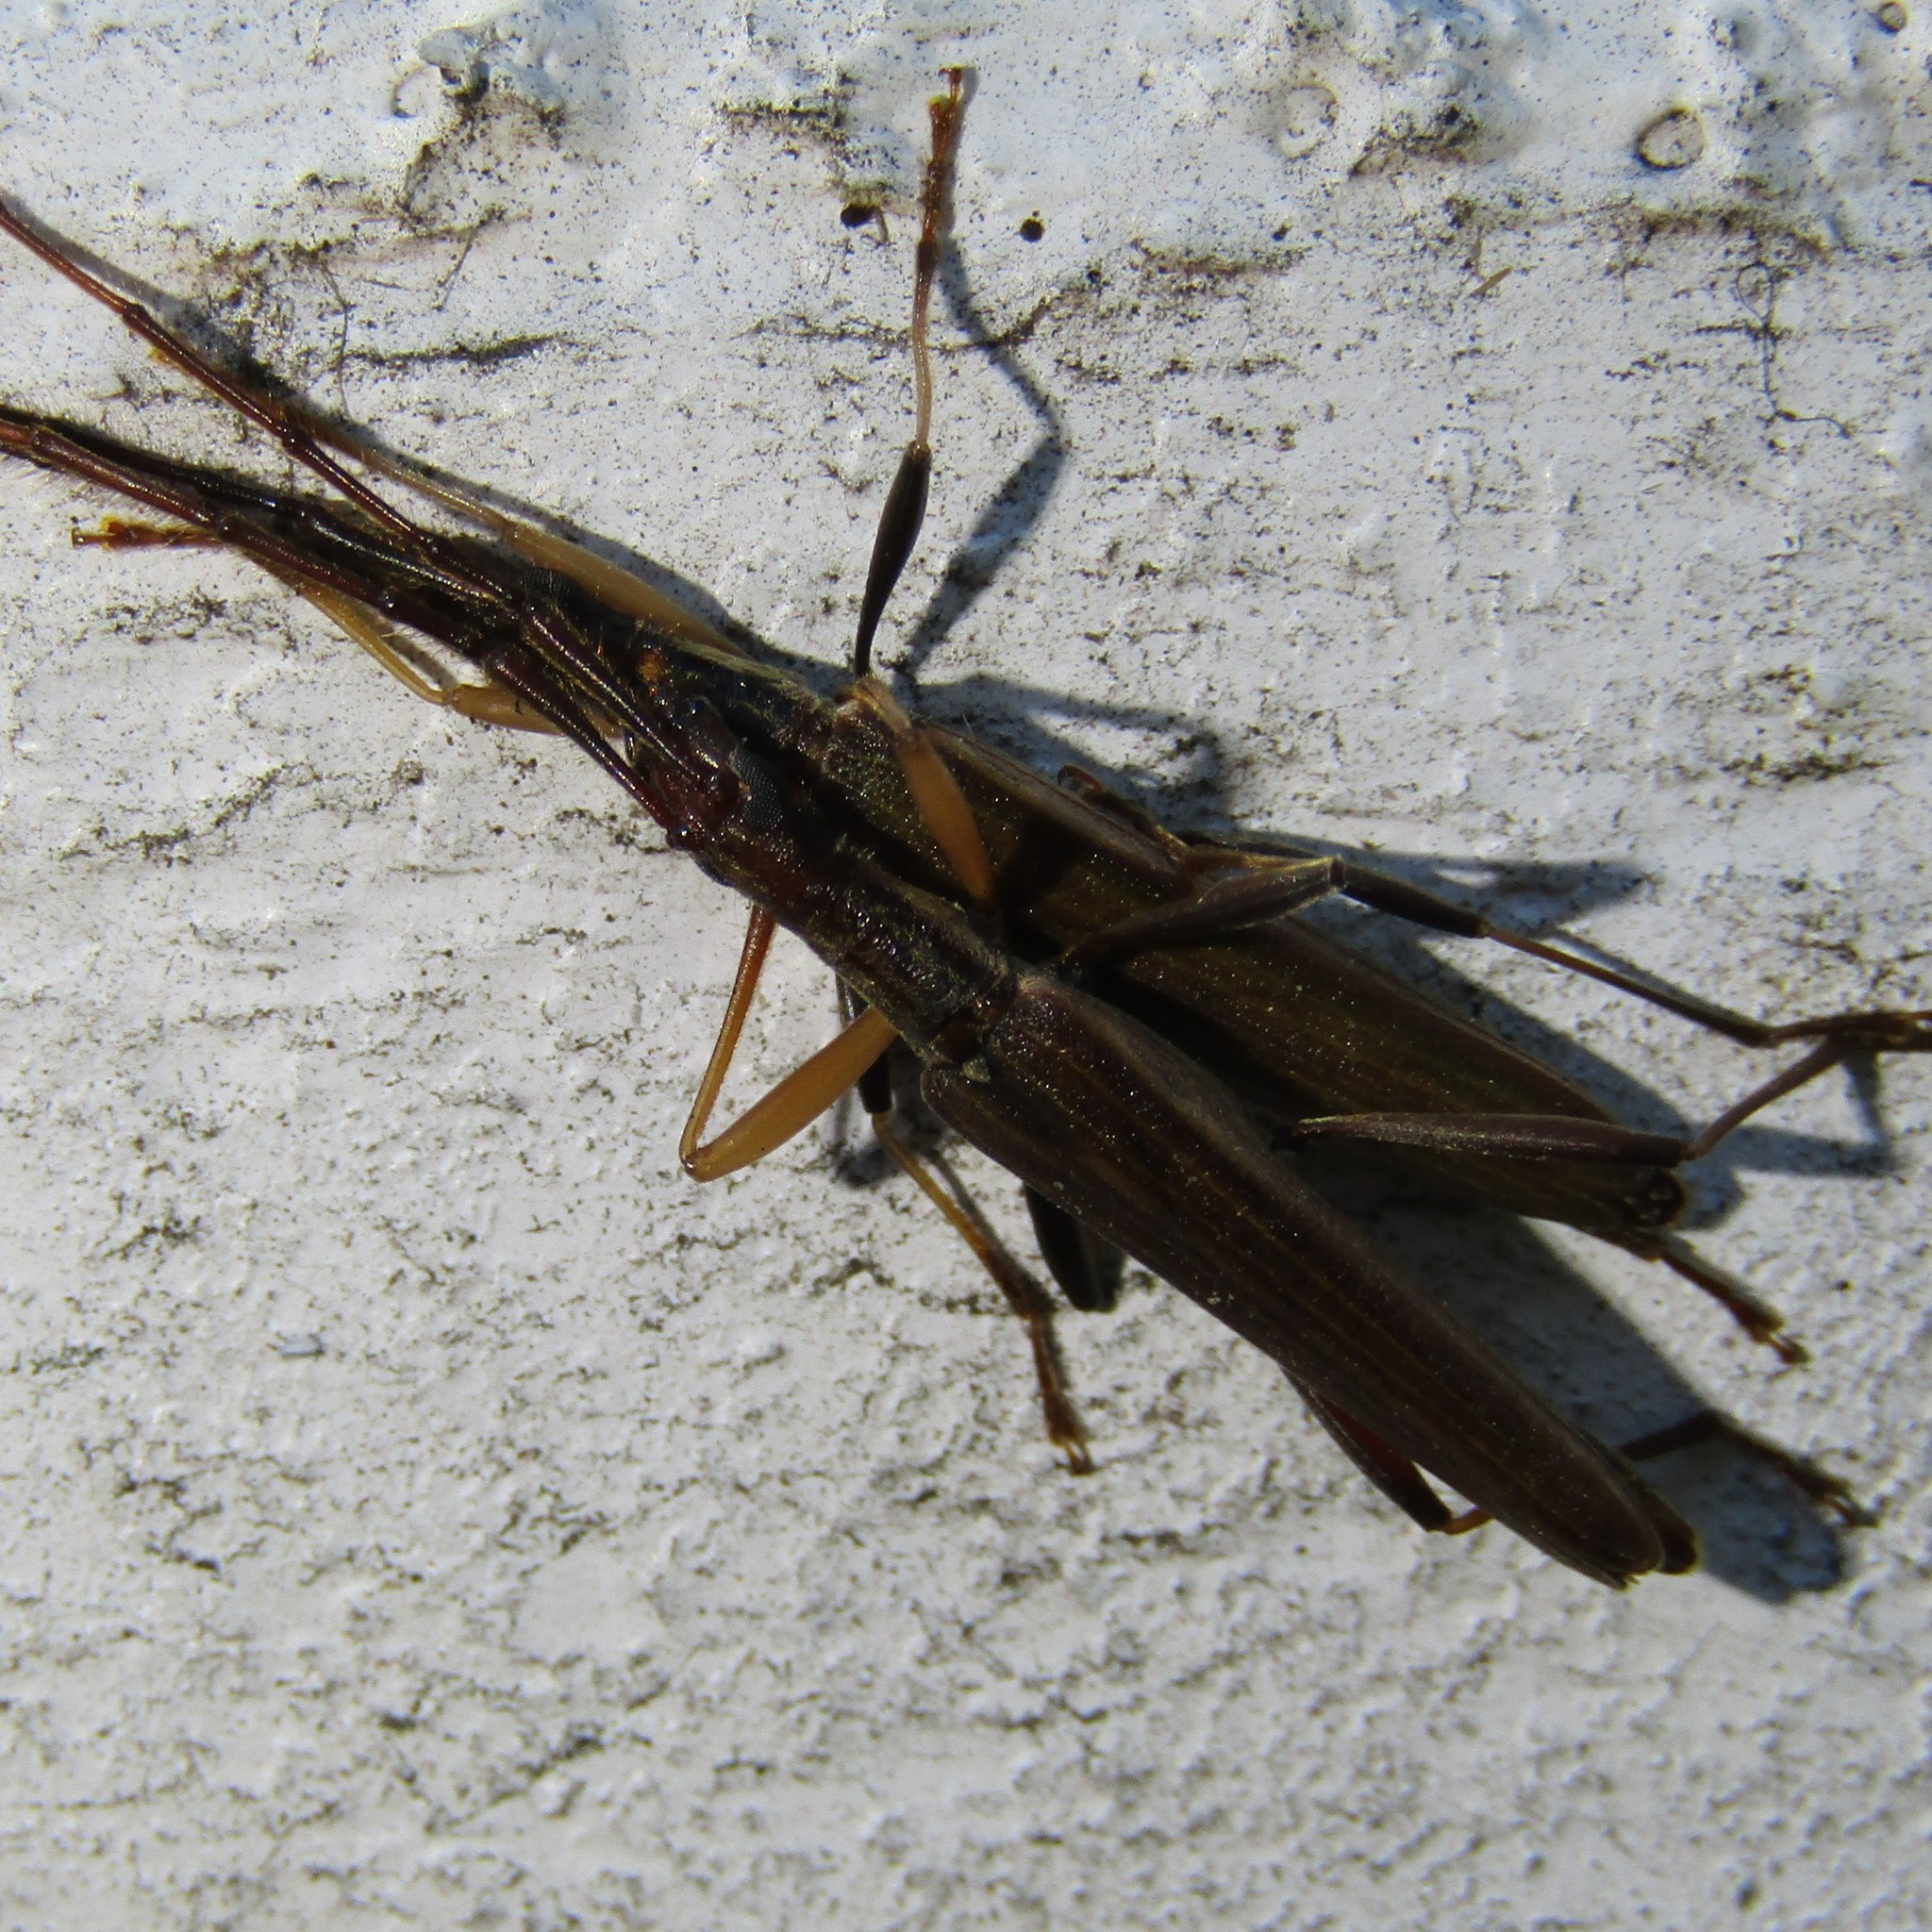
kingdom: Animalia
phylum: Arthropoda
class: Insecta
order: Coleoptera
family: Cerambycidae
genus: Stenopotes
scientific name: Stenopotes pallidus
